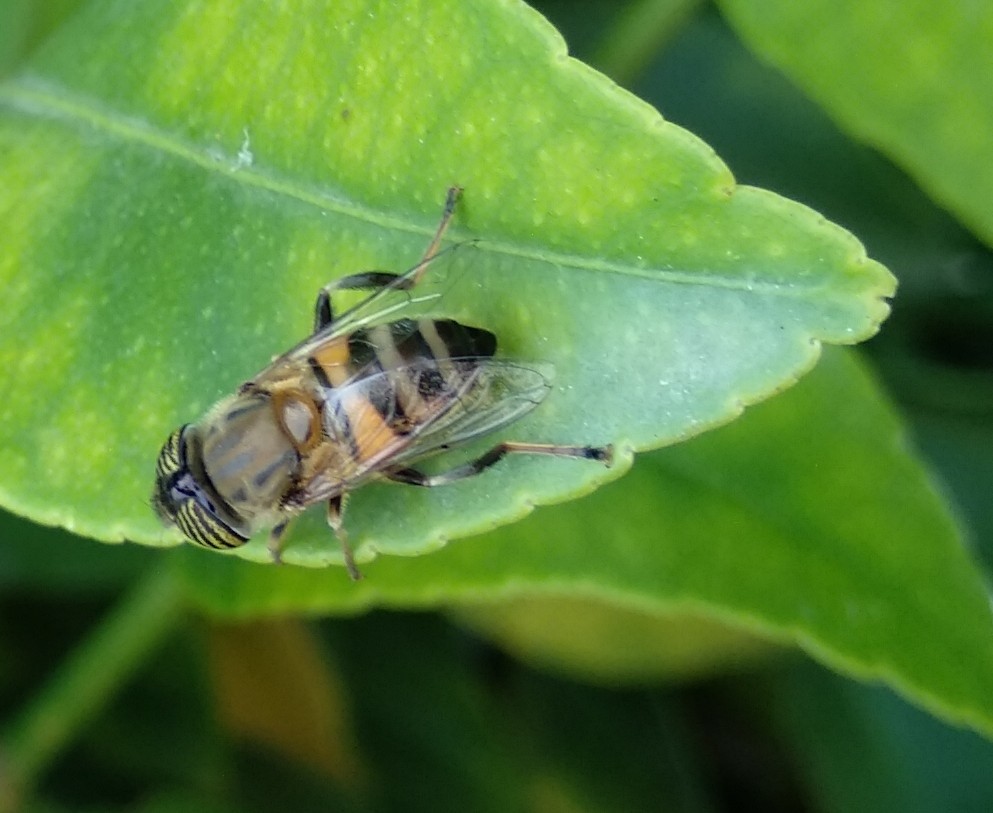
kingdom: Animalia
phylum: Arthropoda
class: Insecta
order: Diptera
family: Syrphidae
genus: Eristalinus
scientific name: Eristalinus taeniops
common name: Syrphid fly
